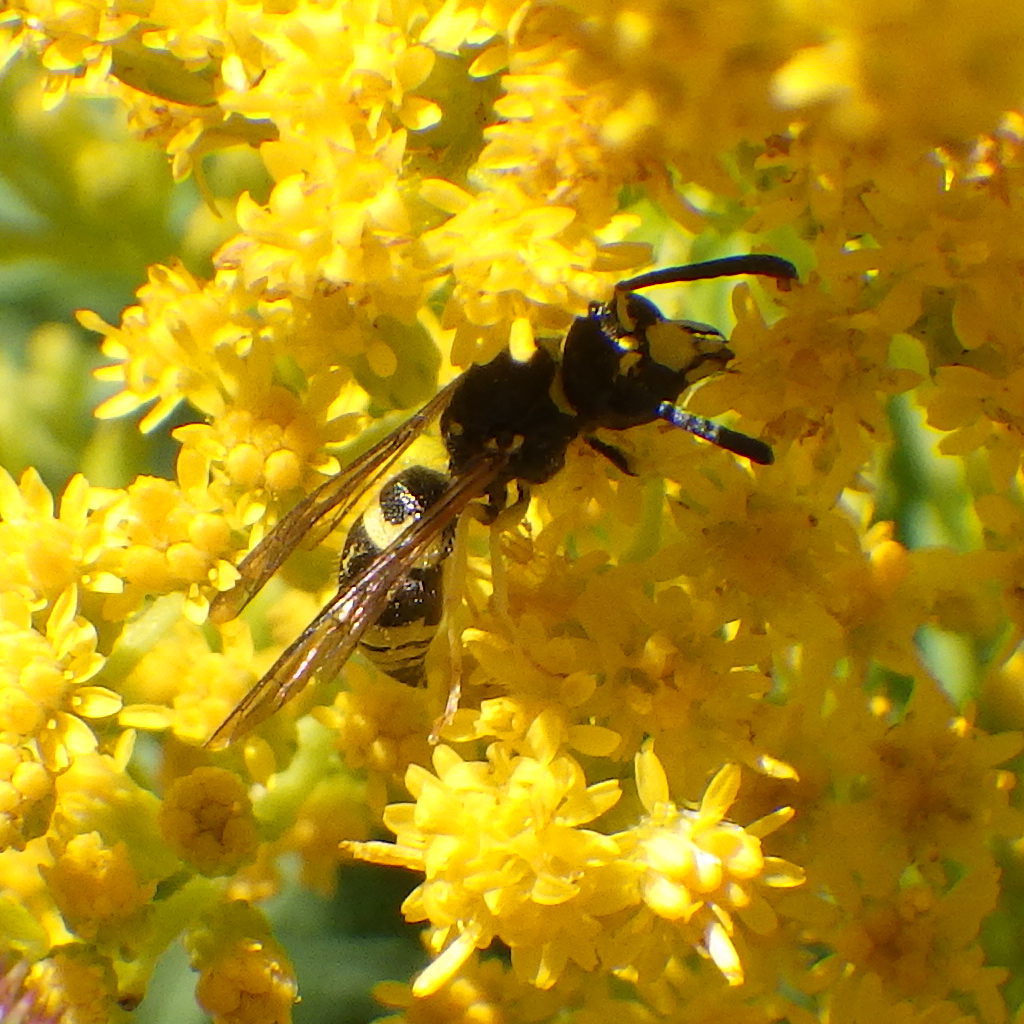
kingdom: Animalia
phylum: Arthropoda
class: Insecta
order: Hymenoptera
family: Vespidae
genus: Ancistrocerus
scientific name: Ancistrocerus
